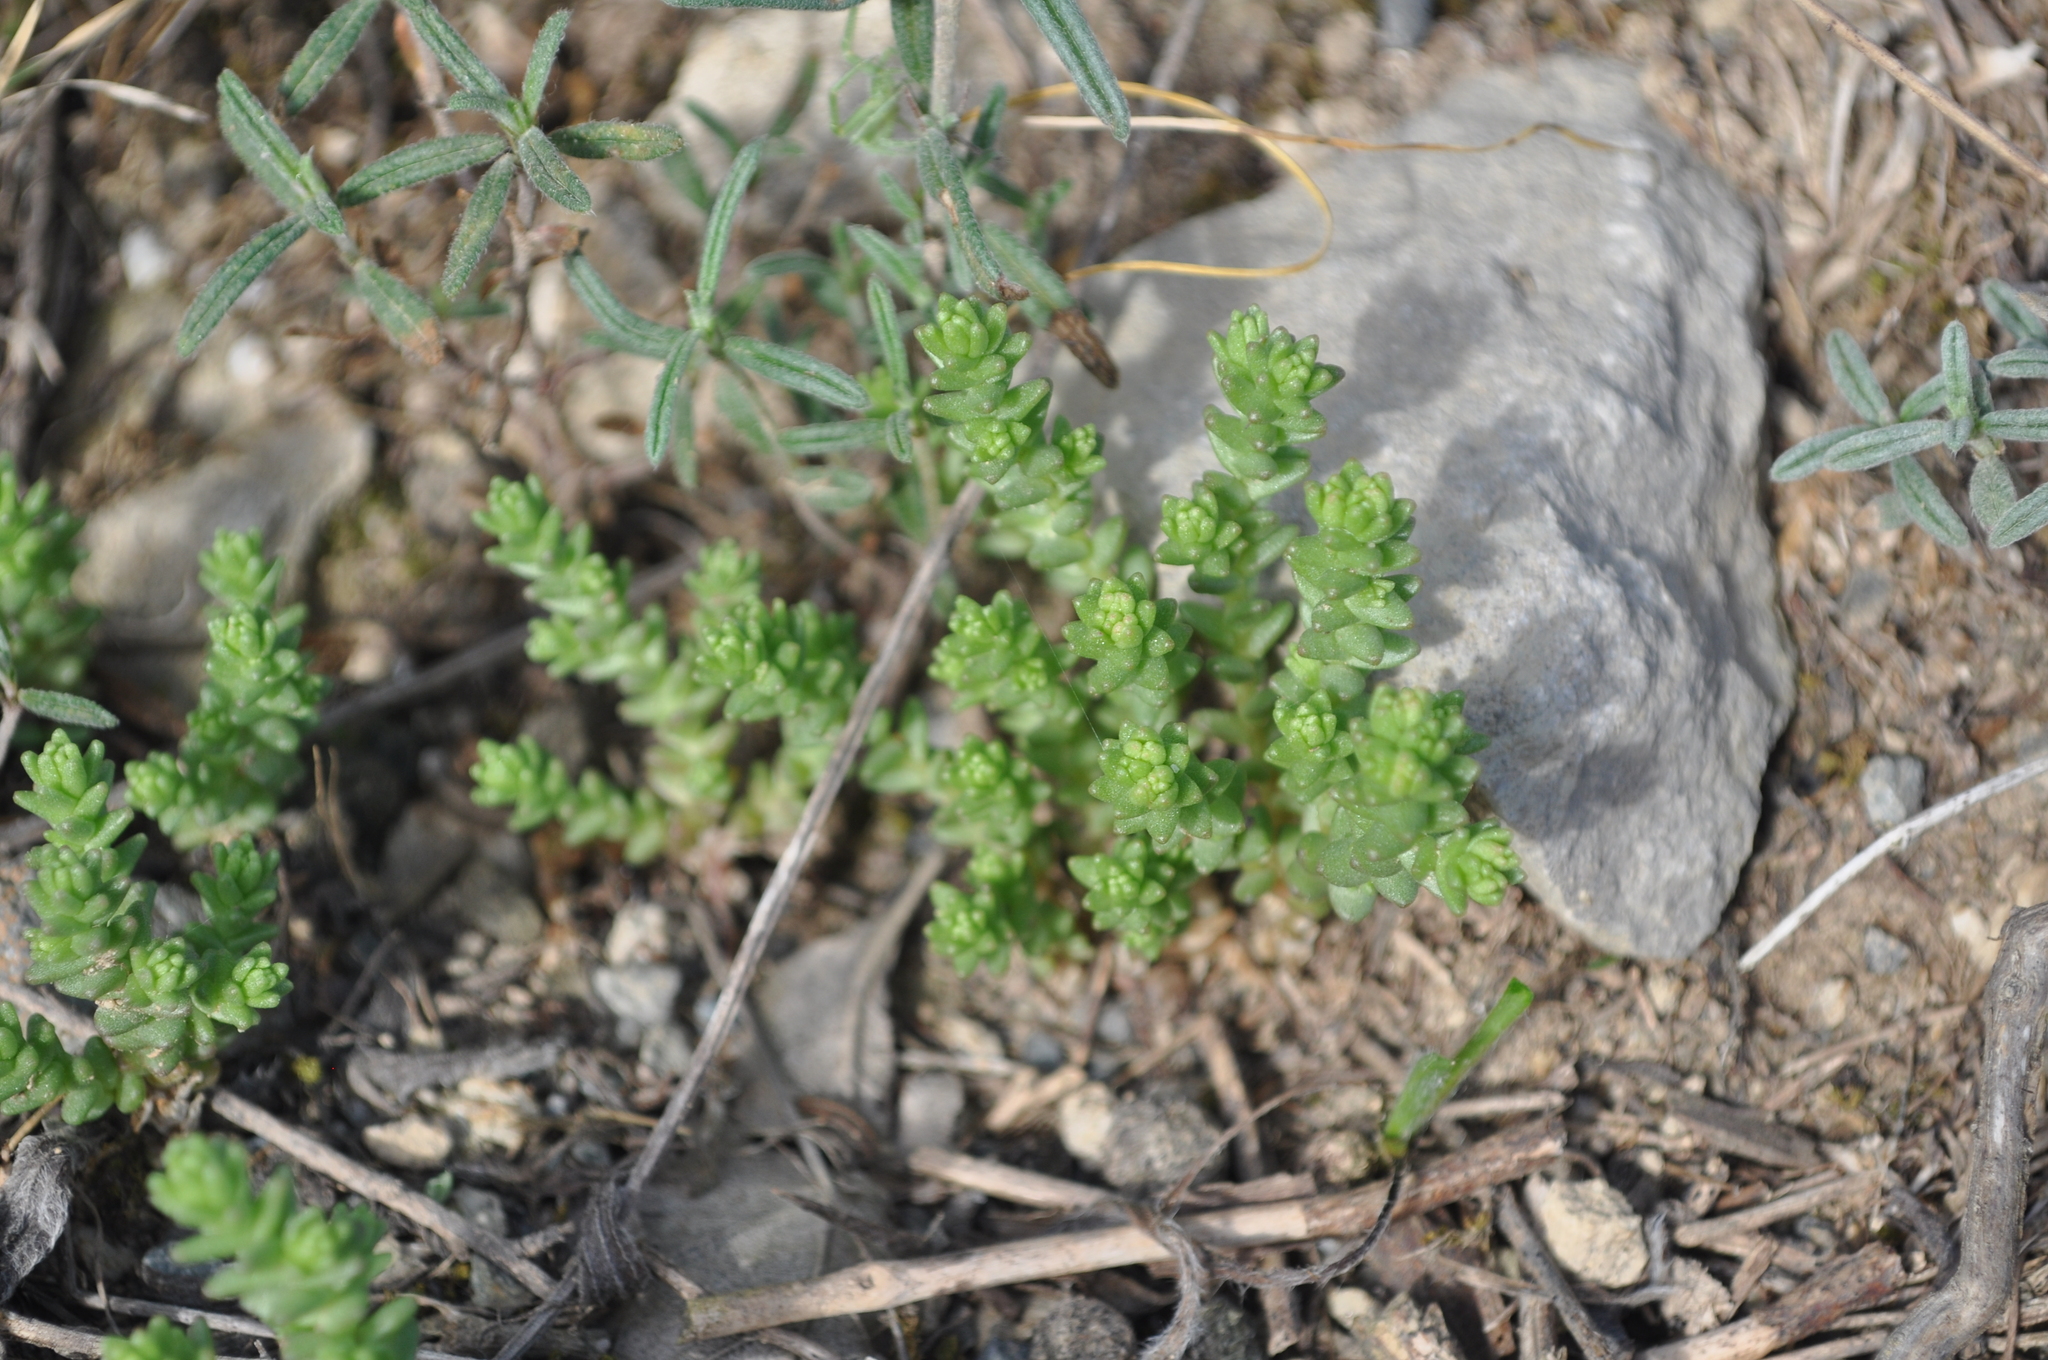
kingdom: Plantae
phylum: Tracheophyta
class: Magnoliopsida
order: Saxifragales
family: Crassulaceae
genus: Sedum
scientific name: Sedum acre
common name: Biting stonecrop
